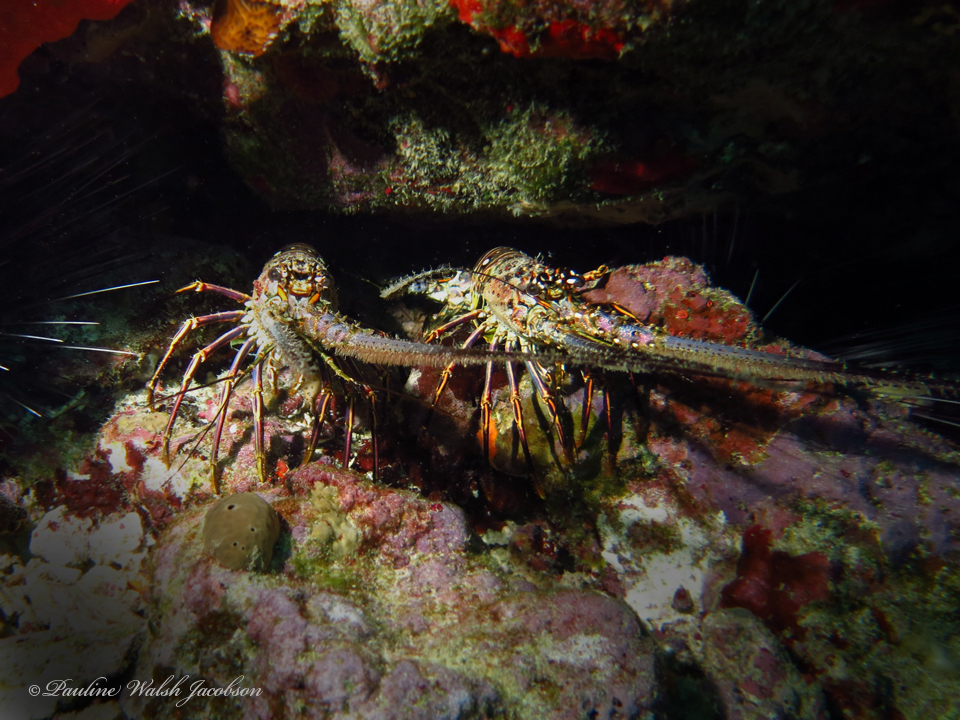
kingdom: Animalia
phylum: Arthropoda
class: Malacostraca
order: Decapoda
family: Palinuridae
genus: Panulirus
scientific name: Panulirus argus
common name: Caribbean spiny lobster
